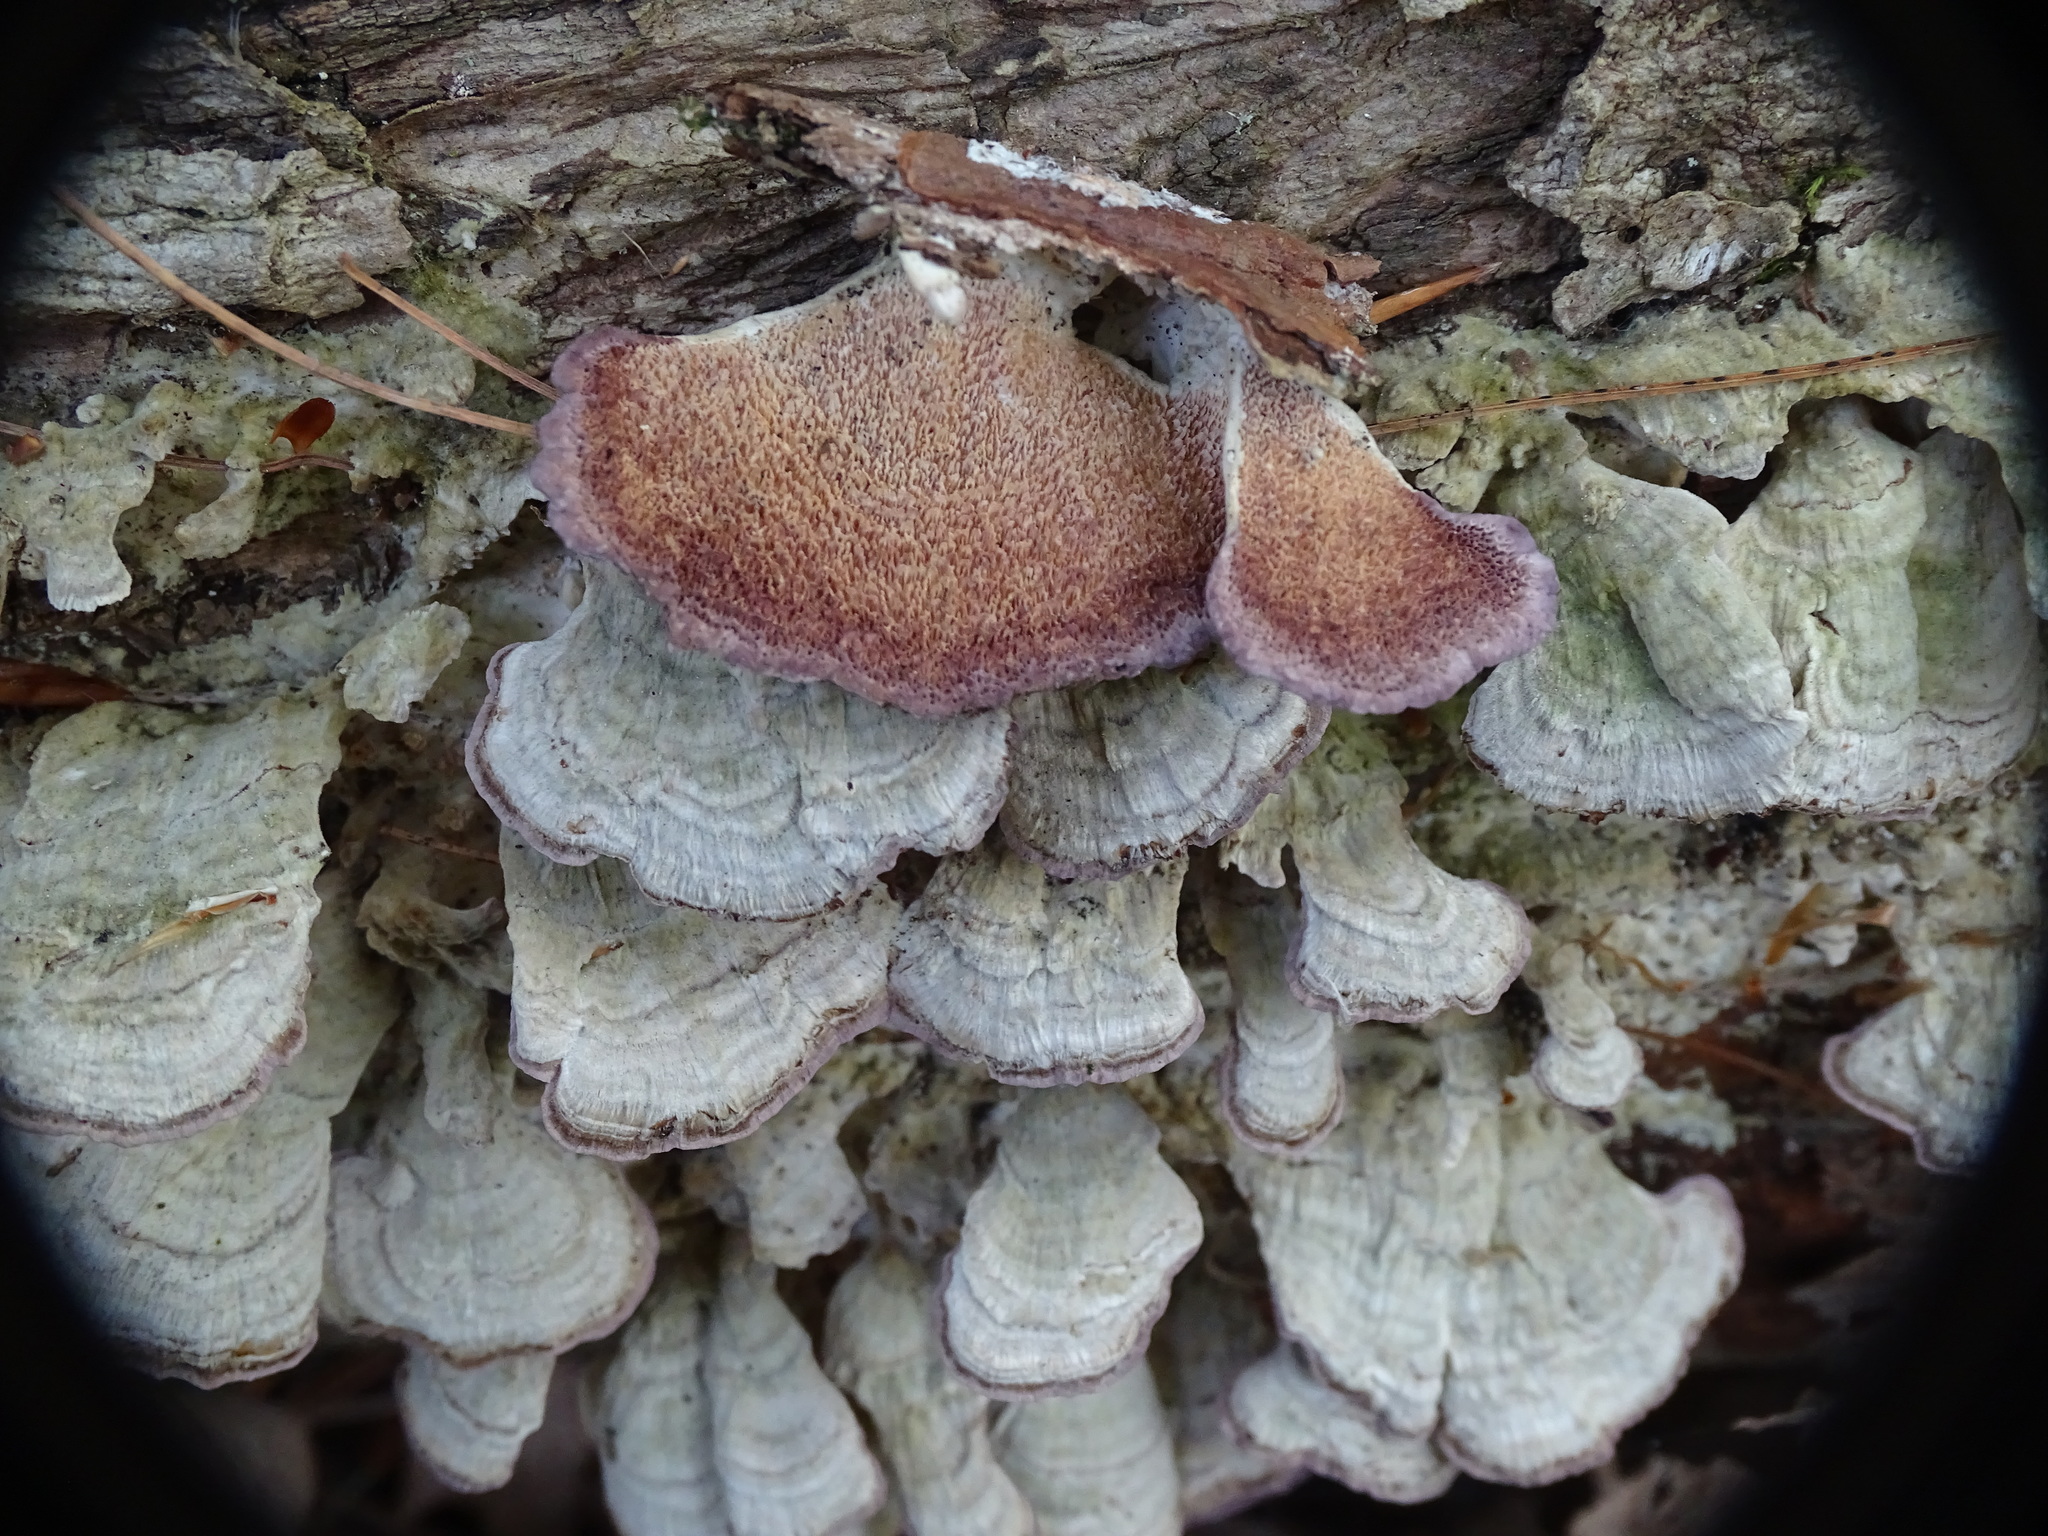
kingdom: Fungi
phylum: Basidiomycota
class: Agaricomycetes
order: Hymenochaetales
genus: Trichaptum
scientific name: Trichaptum biforme
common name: Violet-toothed polypore
